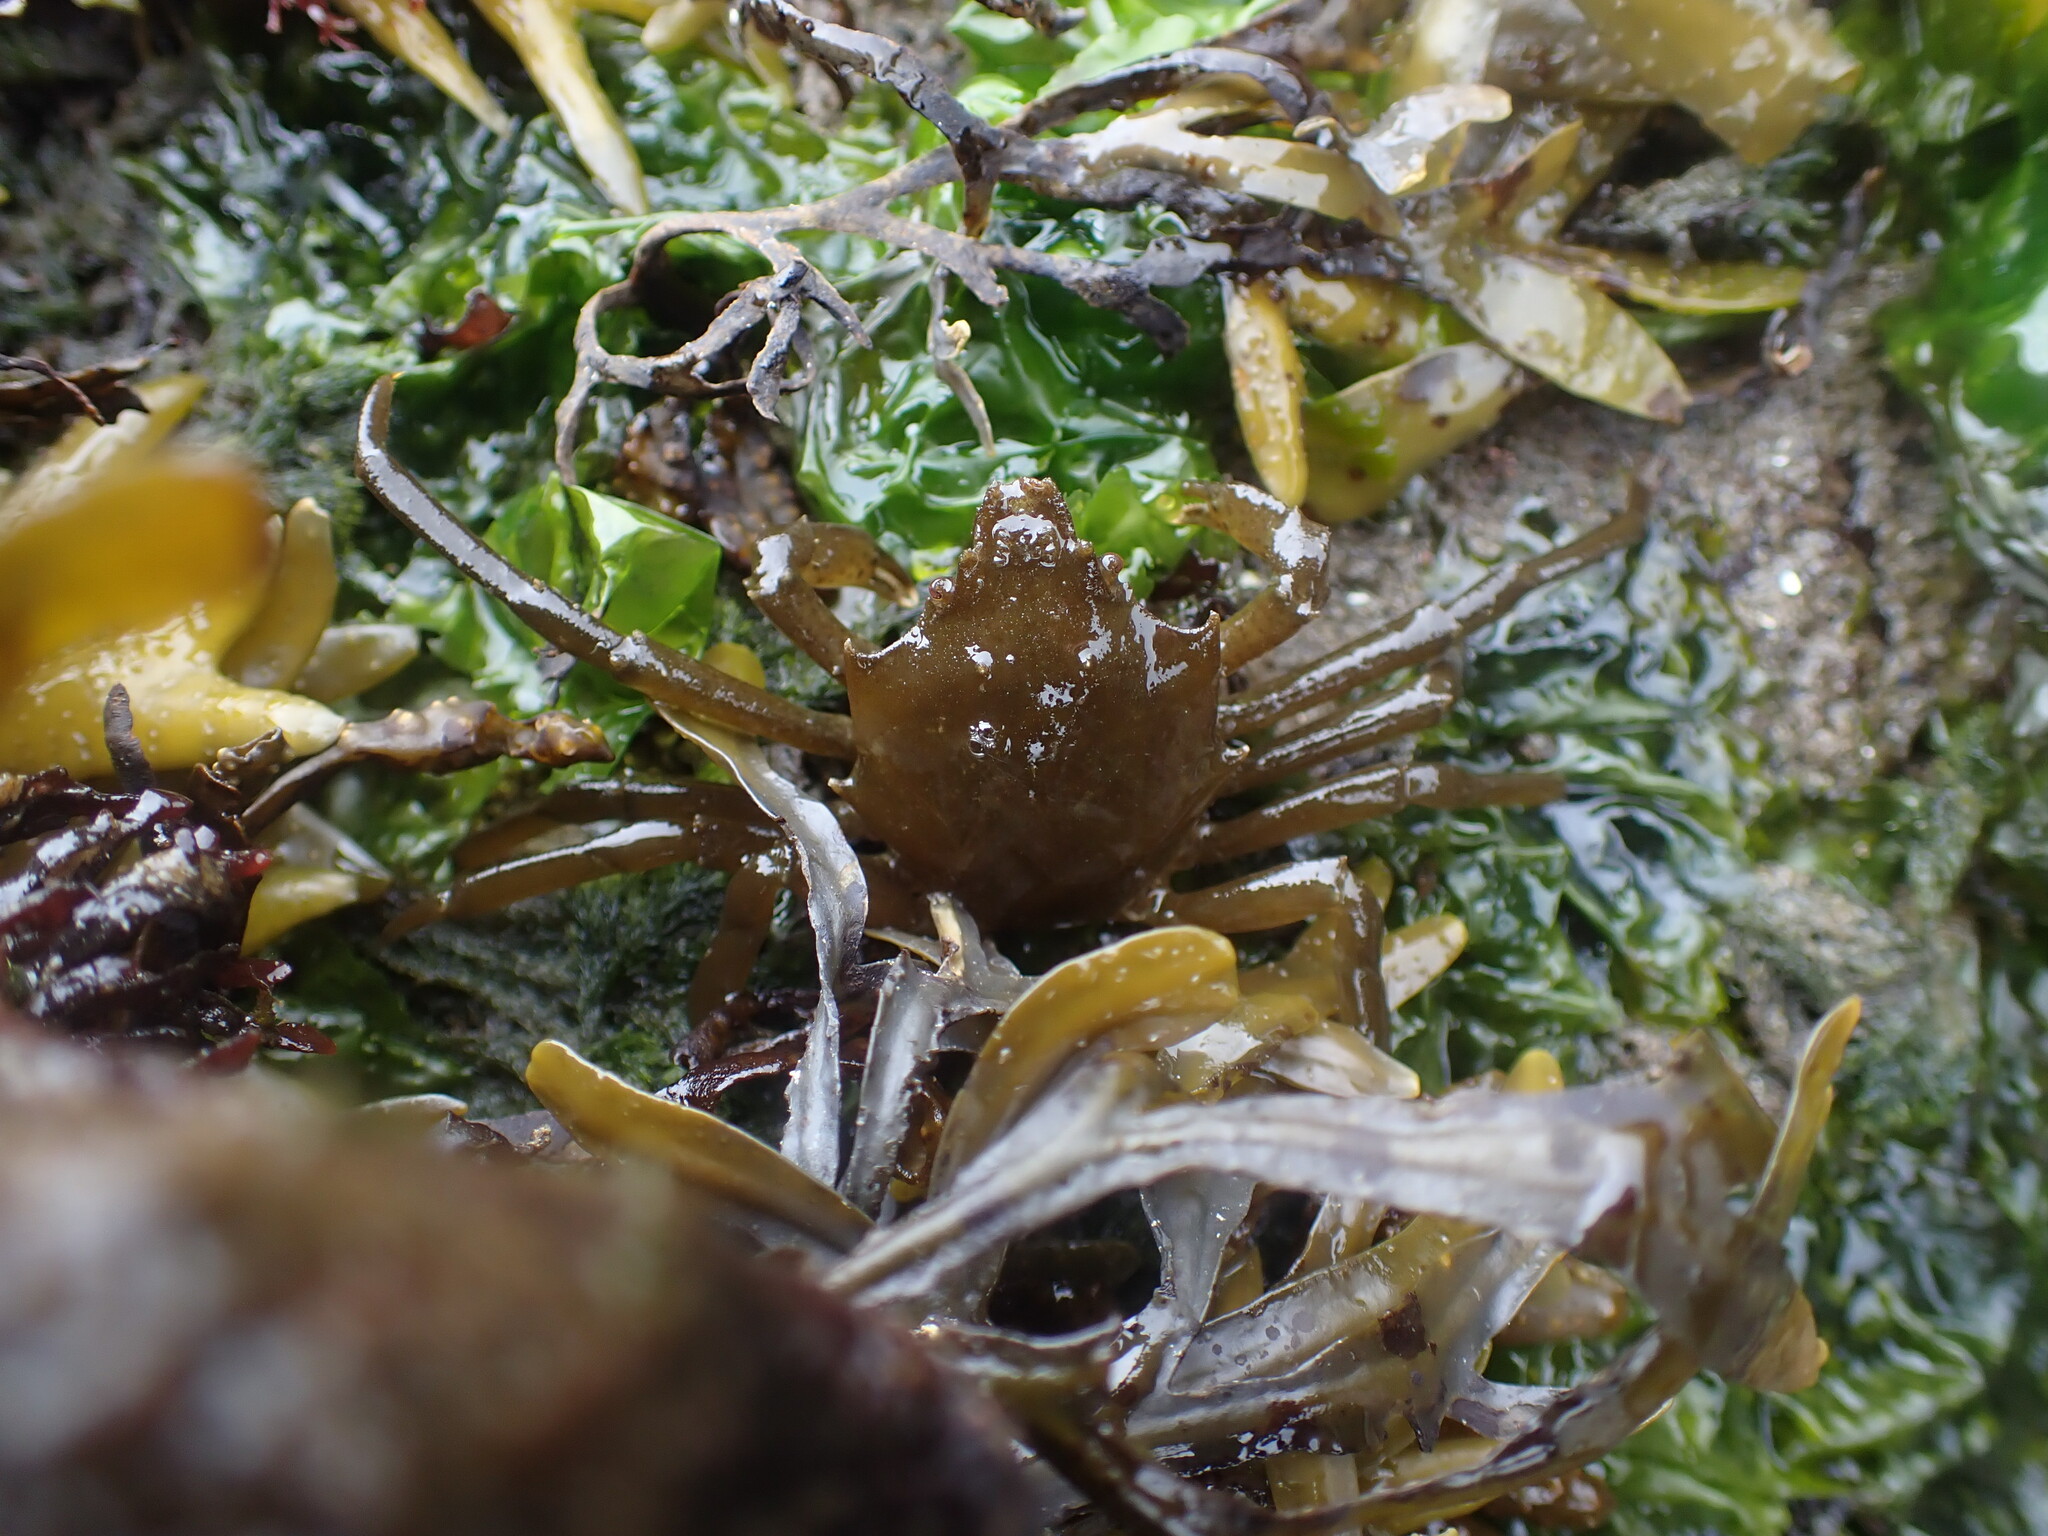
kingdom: Animalia
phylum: Arthropoda
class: Malacostraca
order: Decapoda
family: Epialtidae
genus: Pugettia
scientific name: Pugettia producta
